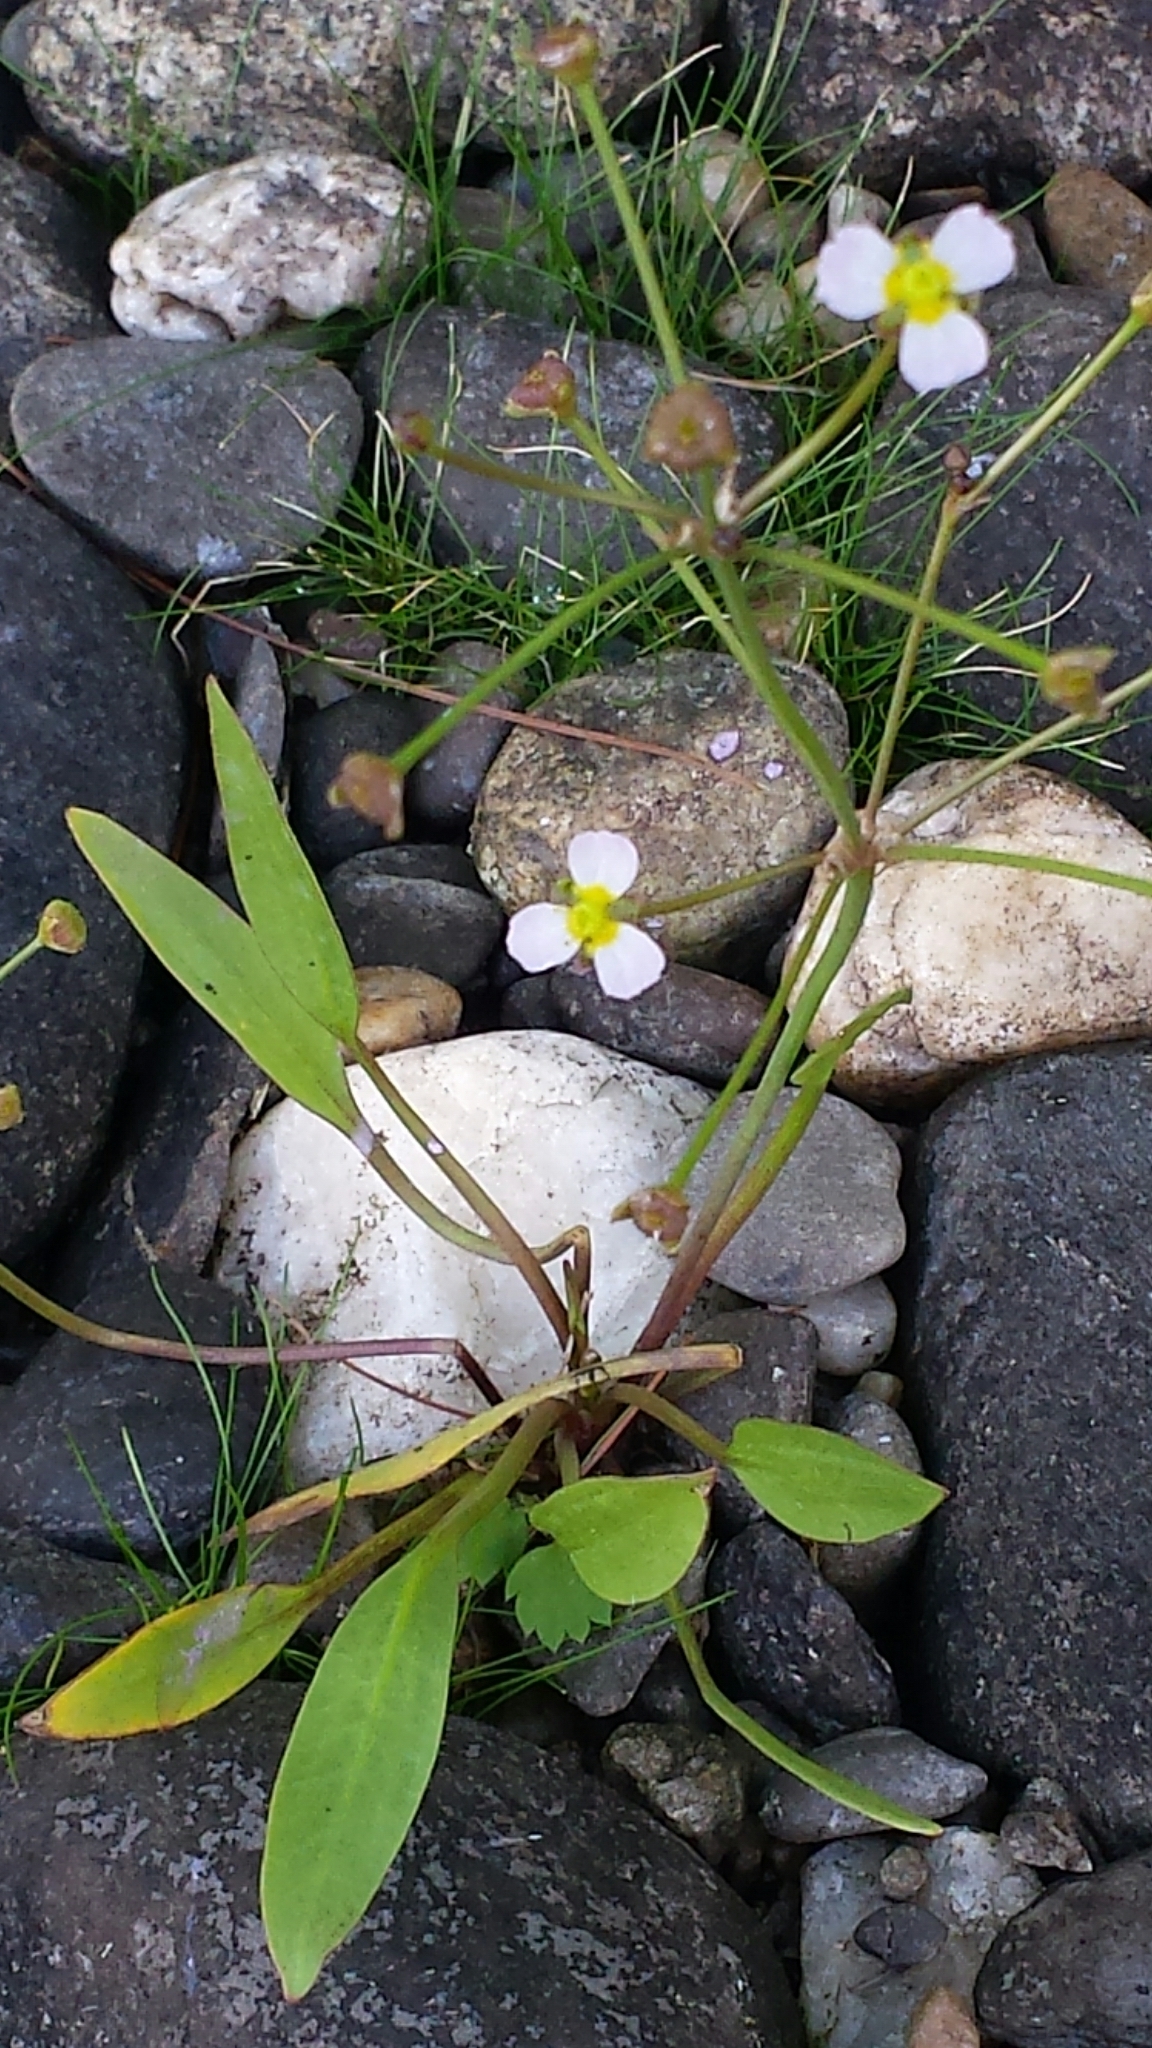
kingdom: Plantae
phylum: Tracheophyta
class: Liliopsida
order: Alismatales
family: Alismataceae
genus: Alisma
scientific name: Alisma gramineum
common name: Ribbon-leaved water-plantain
